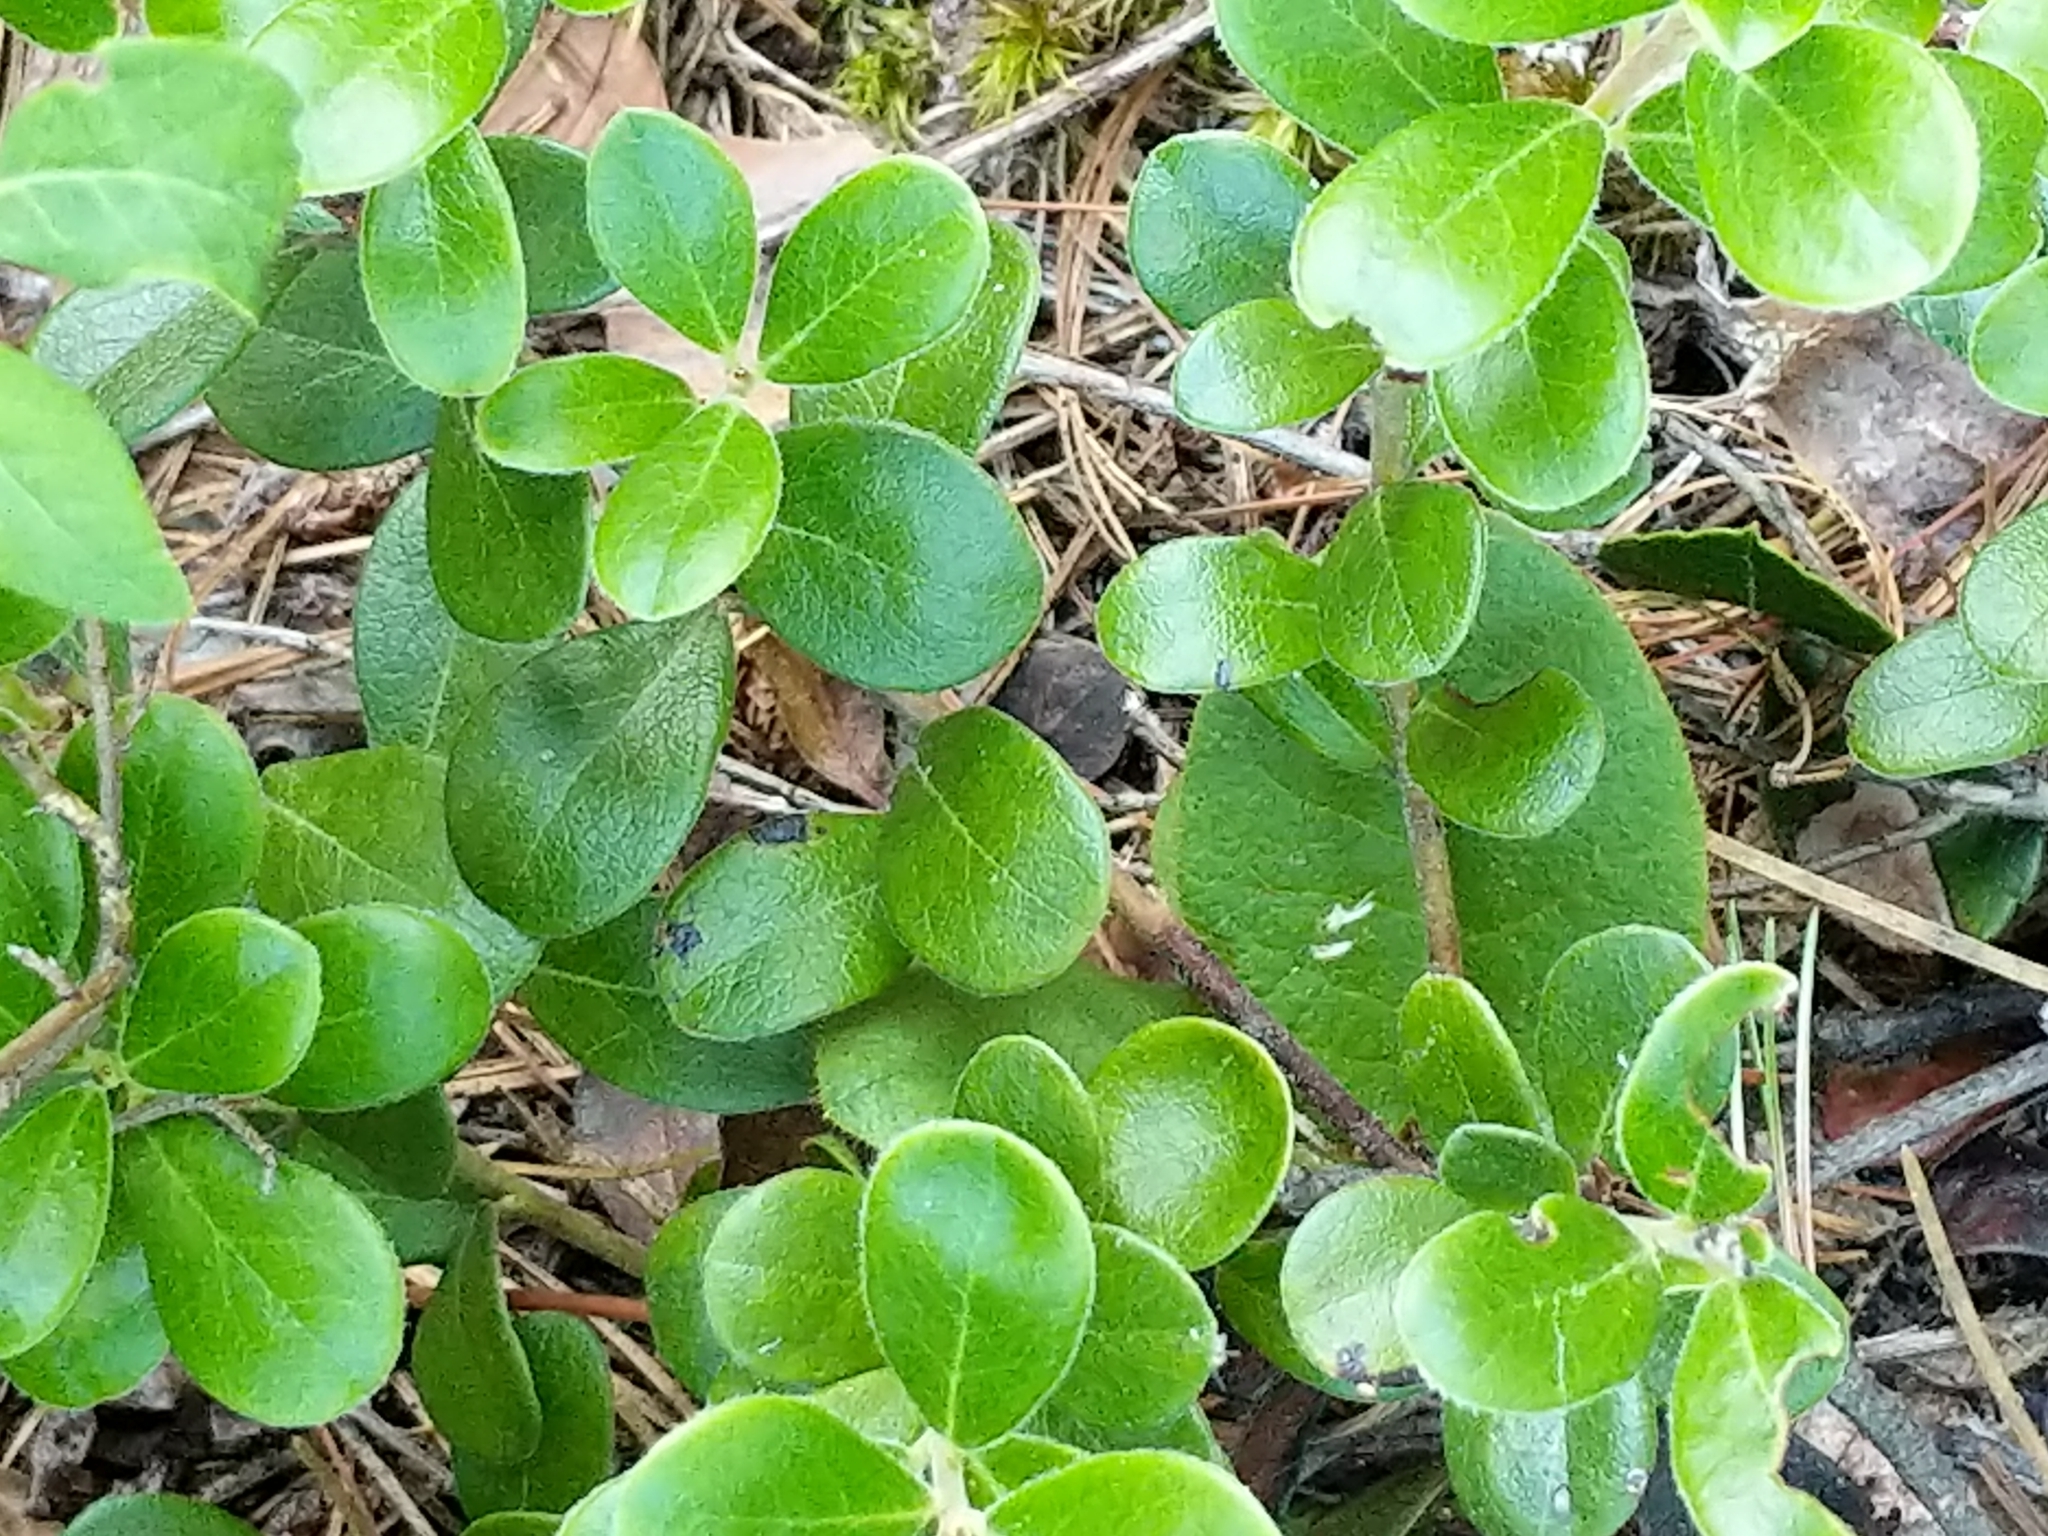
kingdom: Plantae
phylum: Tracheophyta
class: Magnoliopsida
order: Ericales
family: Ericaceae
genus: Arctostaphylos
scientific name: Arctostaphylos uva-ursi
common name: Bearberry
